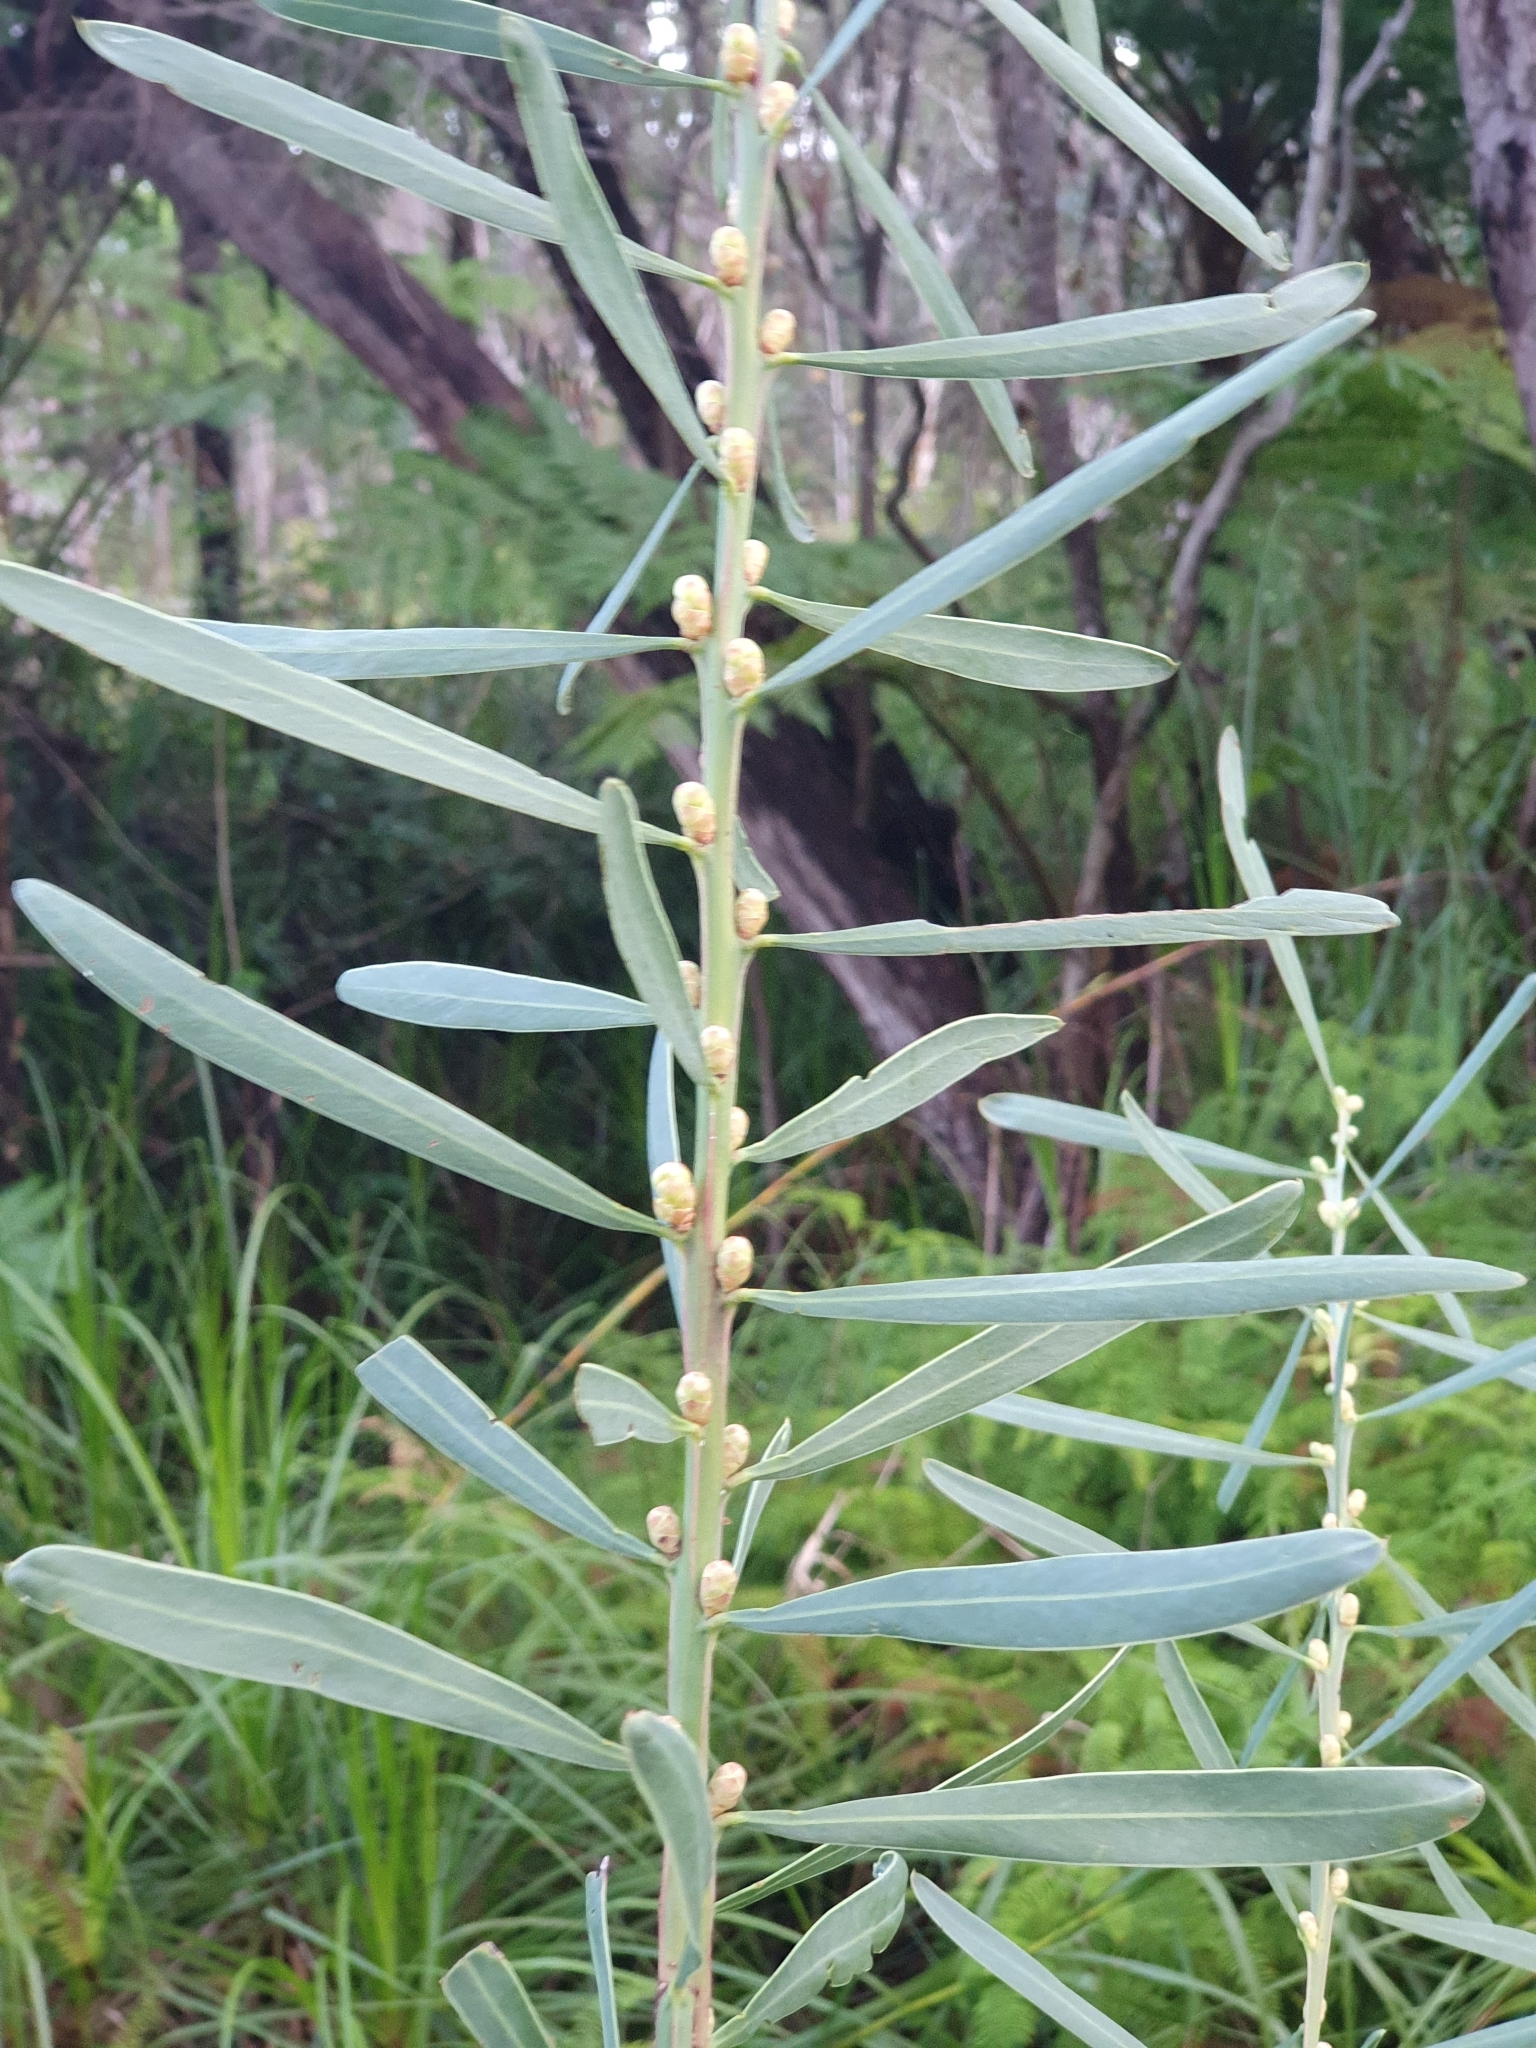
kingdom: Plantae
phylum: Tracheophyta
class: Magnoliopsida
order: Fabales
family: Fabaceae
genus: Acacia
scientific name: Acacia suaveolens
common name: Sweet acacia
